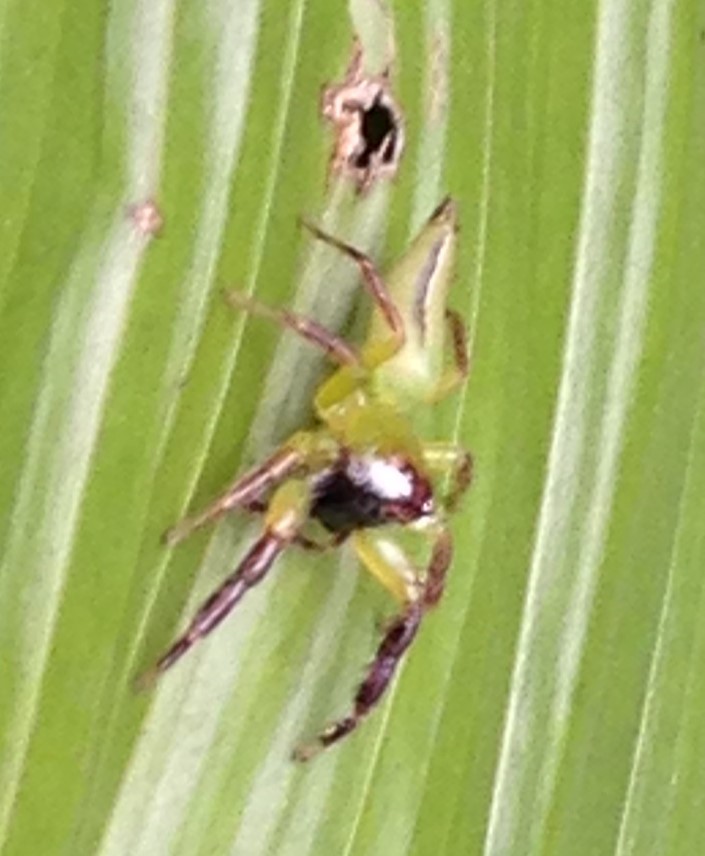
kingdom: Animalia
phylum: Arthropoda
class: Arachnida
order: Araneae
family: Salticidae
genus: Mopsus
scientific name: Mopsus mormon
